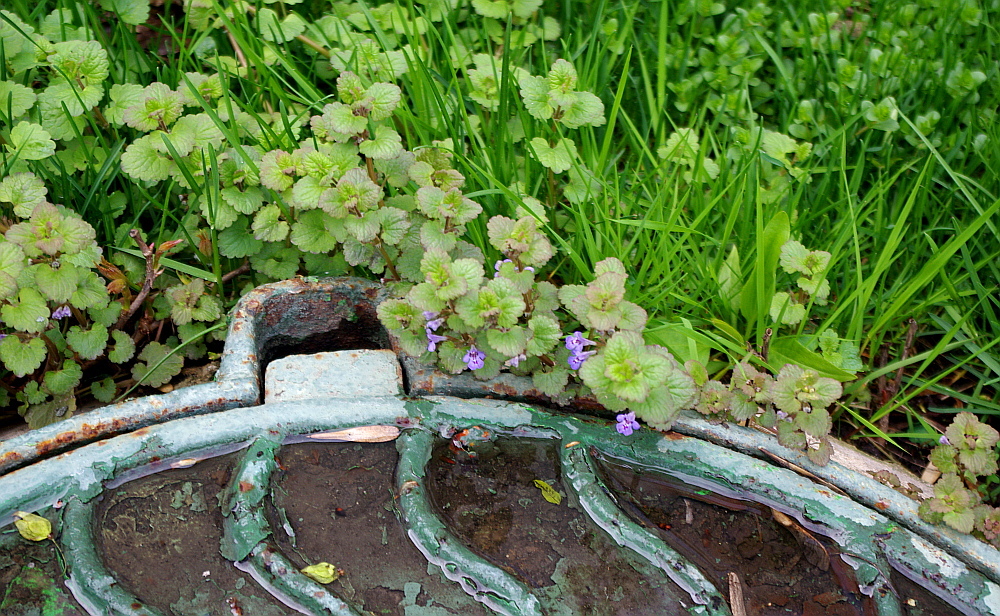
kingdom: Plantae
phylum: Tracheophyta
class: Magnoliopsida
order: Lamiales
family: Lamiaceae
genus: Glechoma
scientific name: Glechoma hederacea
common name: Ground ivy
